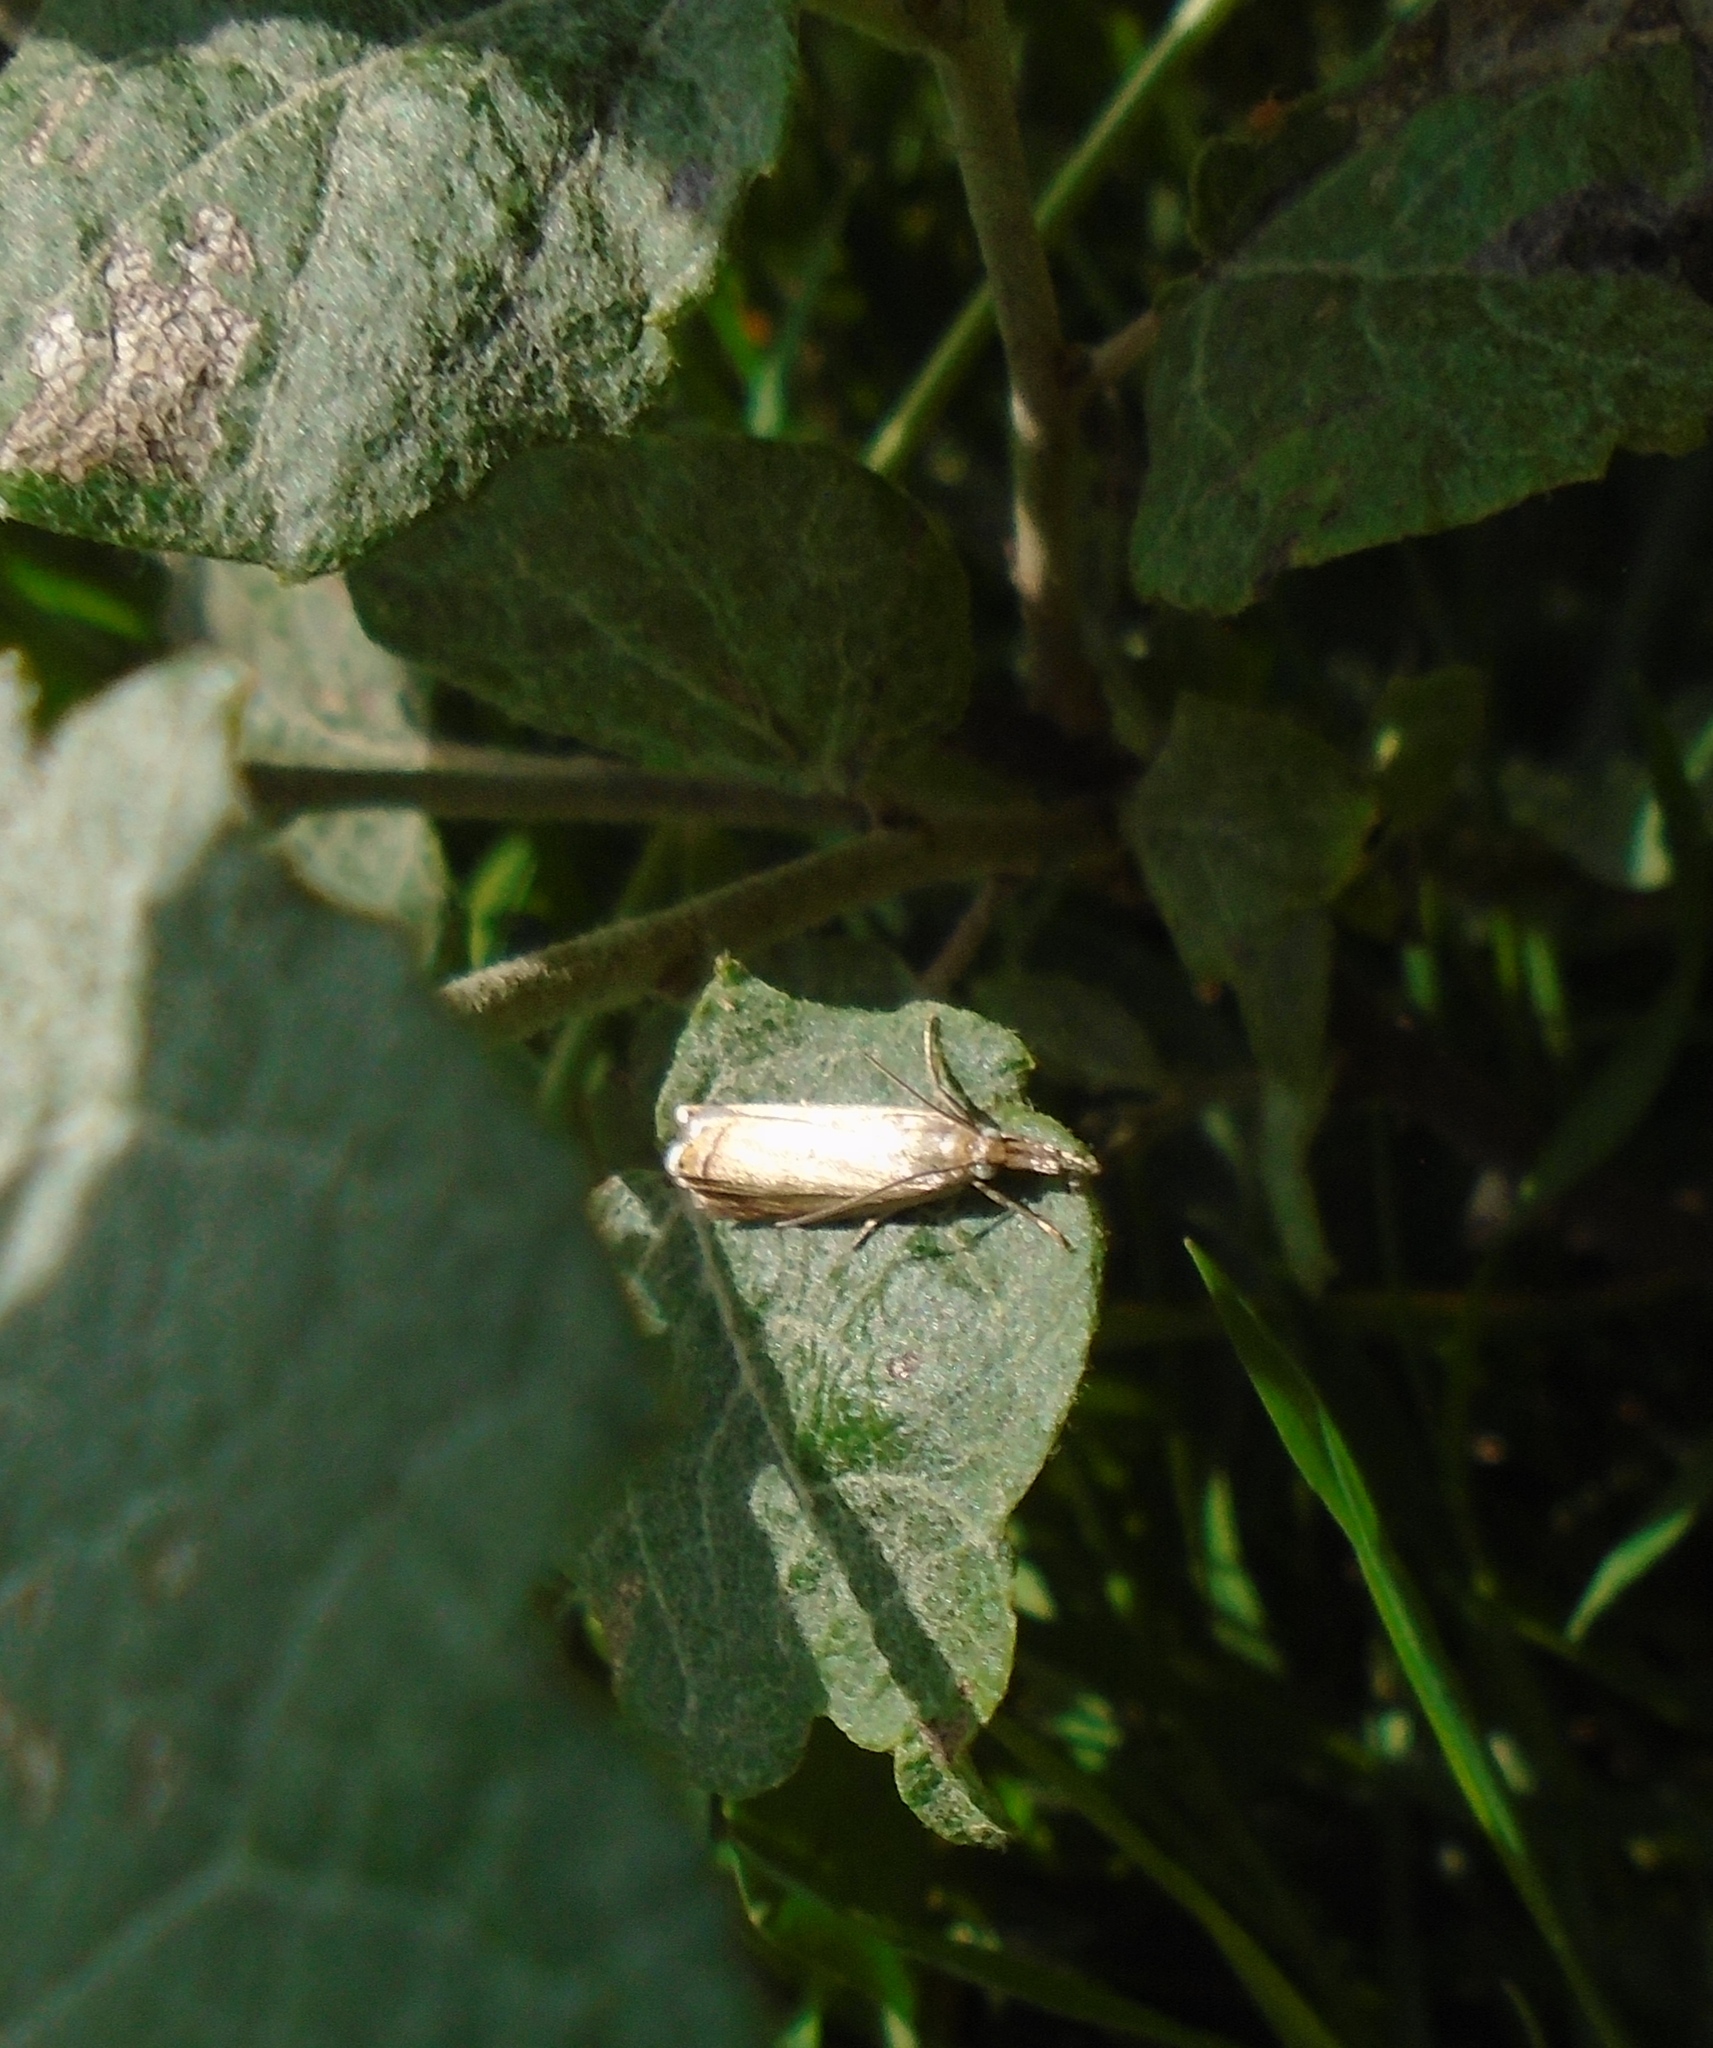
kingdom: Animalia
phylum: Arthropoda
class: Insecta
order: Lepidoptera
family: Crambidae
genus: Chrysoteuchia
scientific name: Chrysoteuchia culmella
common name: Garden grass-veneer
